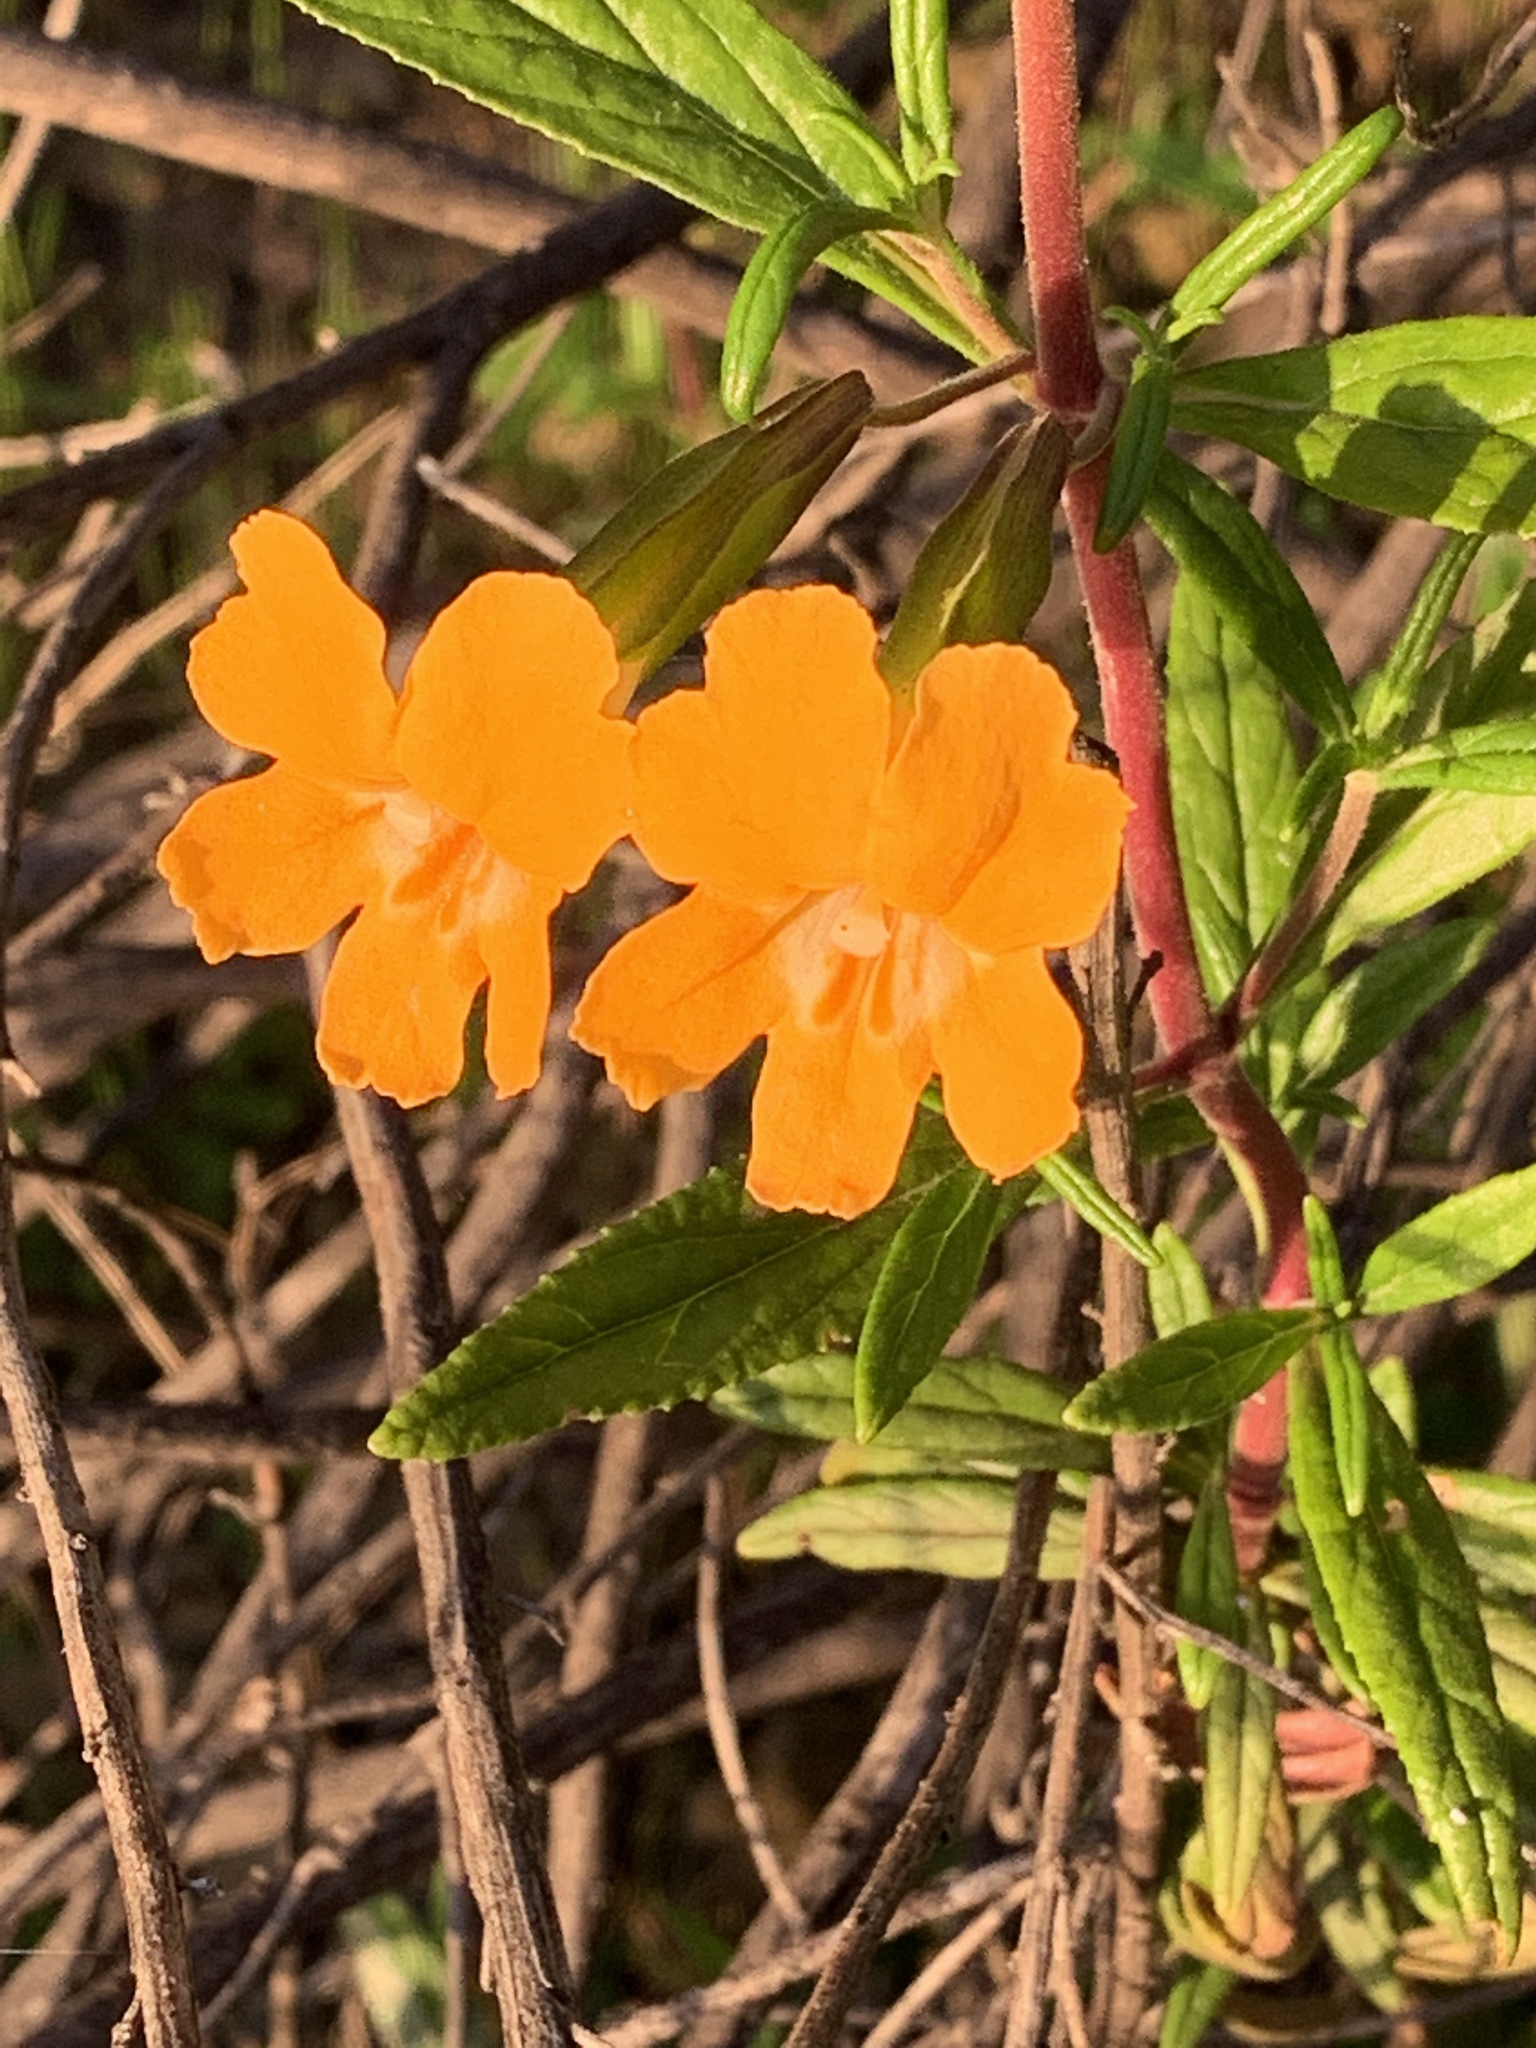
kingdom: Plantae
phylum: Tracheophyta
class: Magnoliopsida
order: Lamiales
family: Phrymaceae
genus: Diplacus
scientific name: Diplacus aurantiacus
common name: Bush monkey-flower
